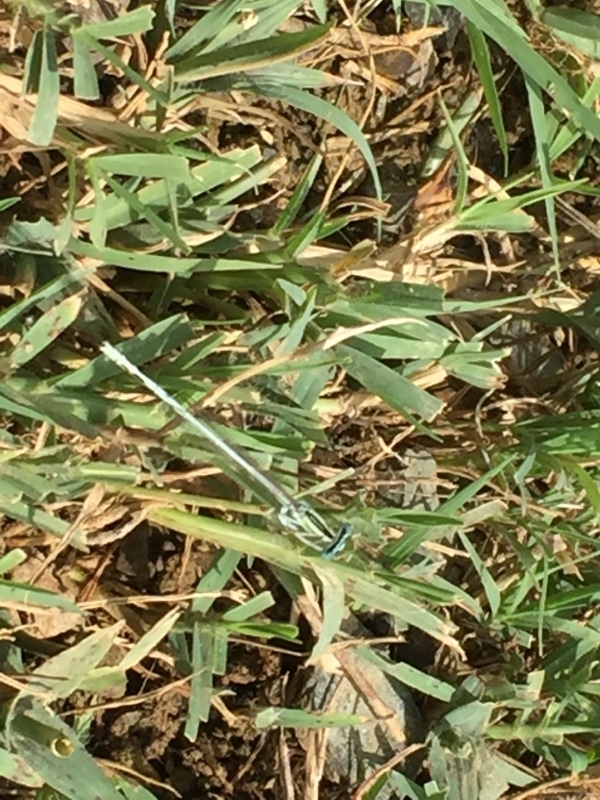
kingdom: Animalia
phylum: Arthropoda
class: Insecta
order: Odonata
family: Platycnemididae
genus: Platycnemis
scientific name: Platycnemis dealbata
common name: Ivory featherleg
